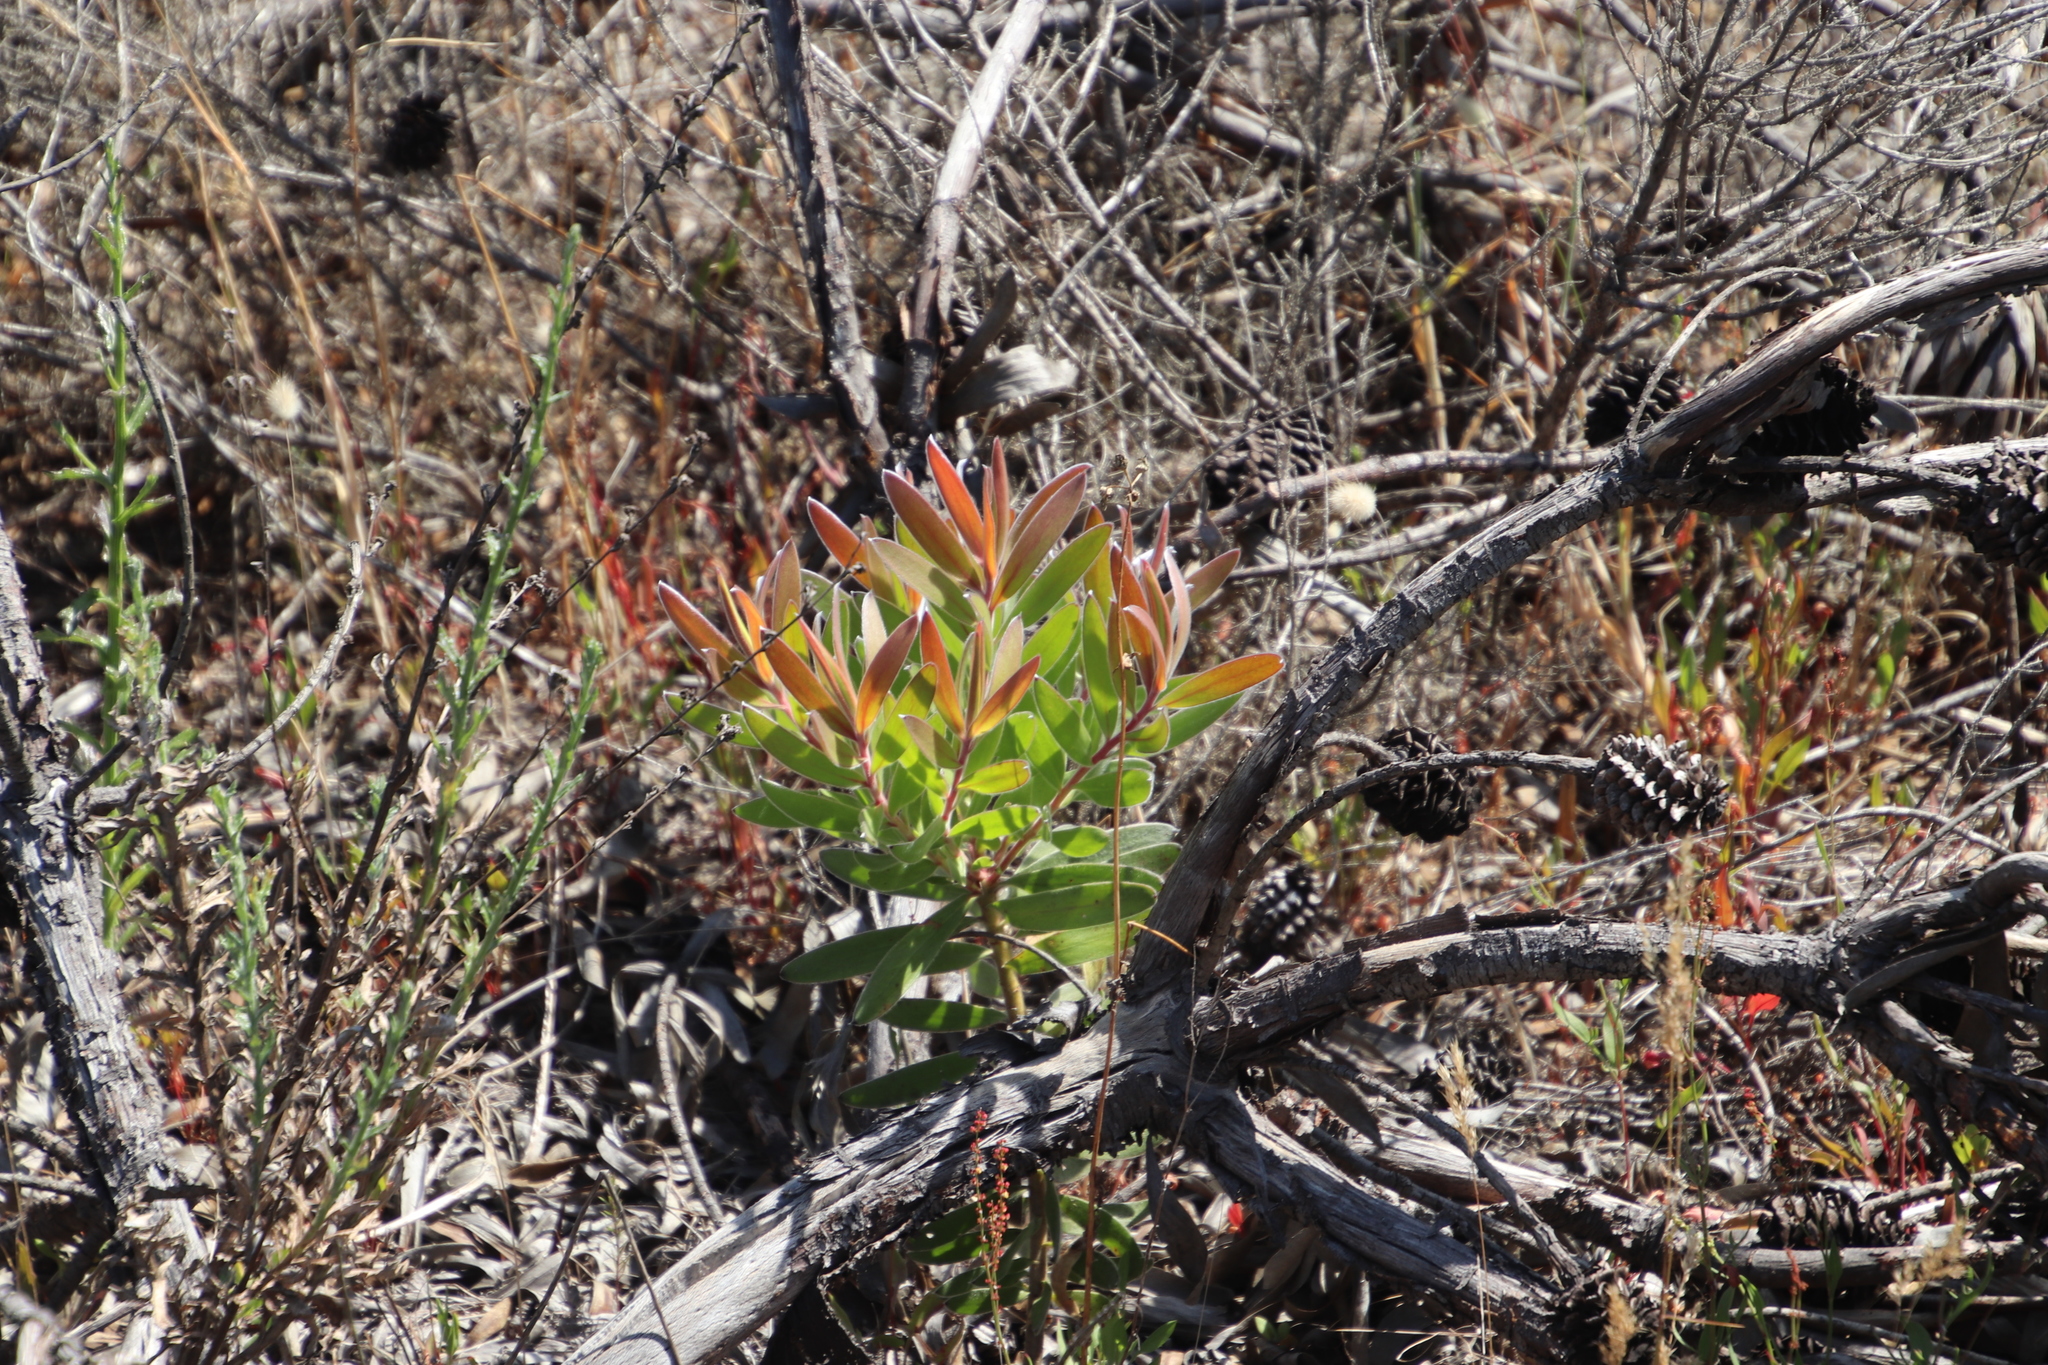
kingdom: Plantae
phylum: Tracheophyta
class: Magnoliopsida
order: Proteales
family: Proteaceae
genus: Leucadendron
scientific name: Leucadendron laureolum
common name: Golden sunshinebush
